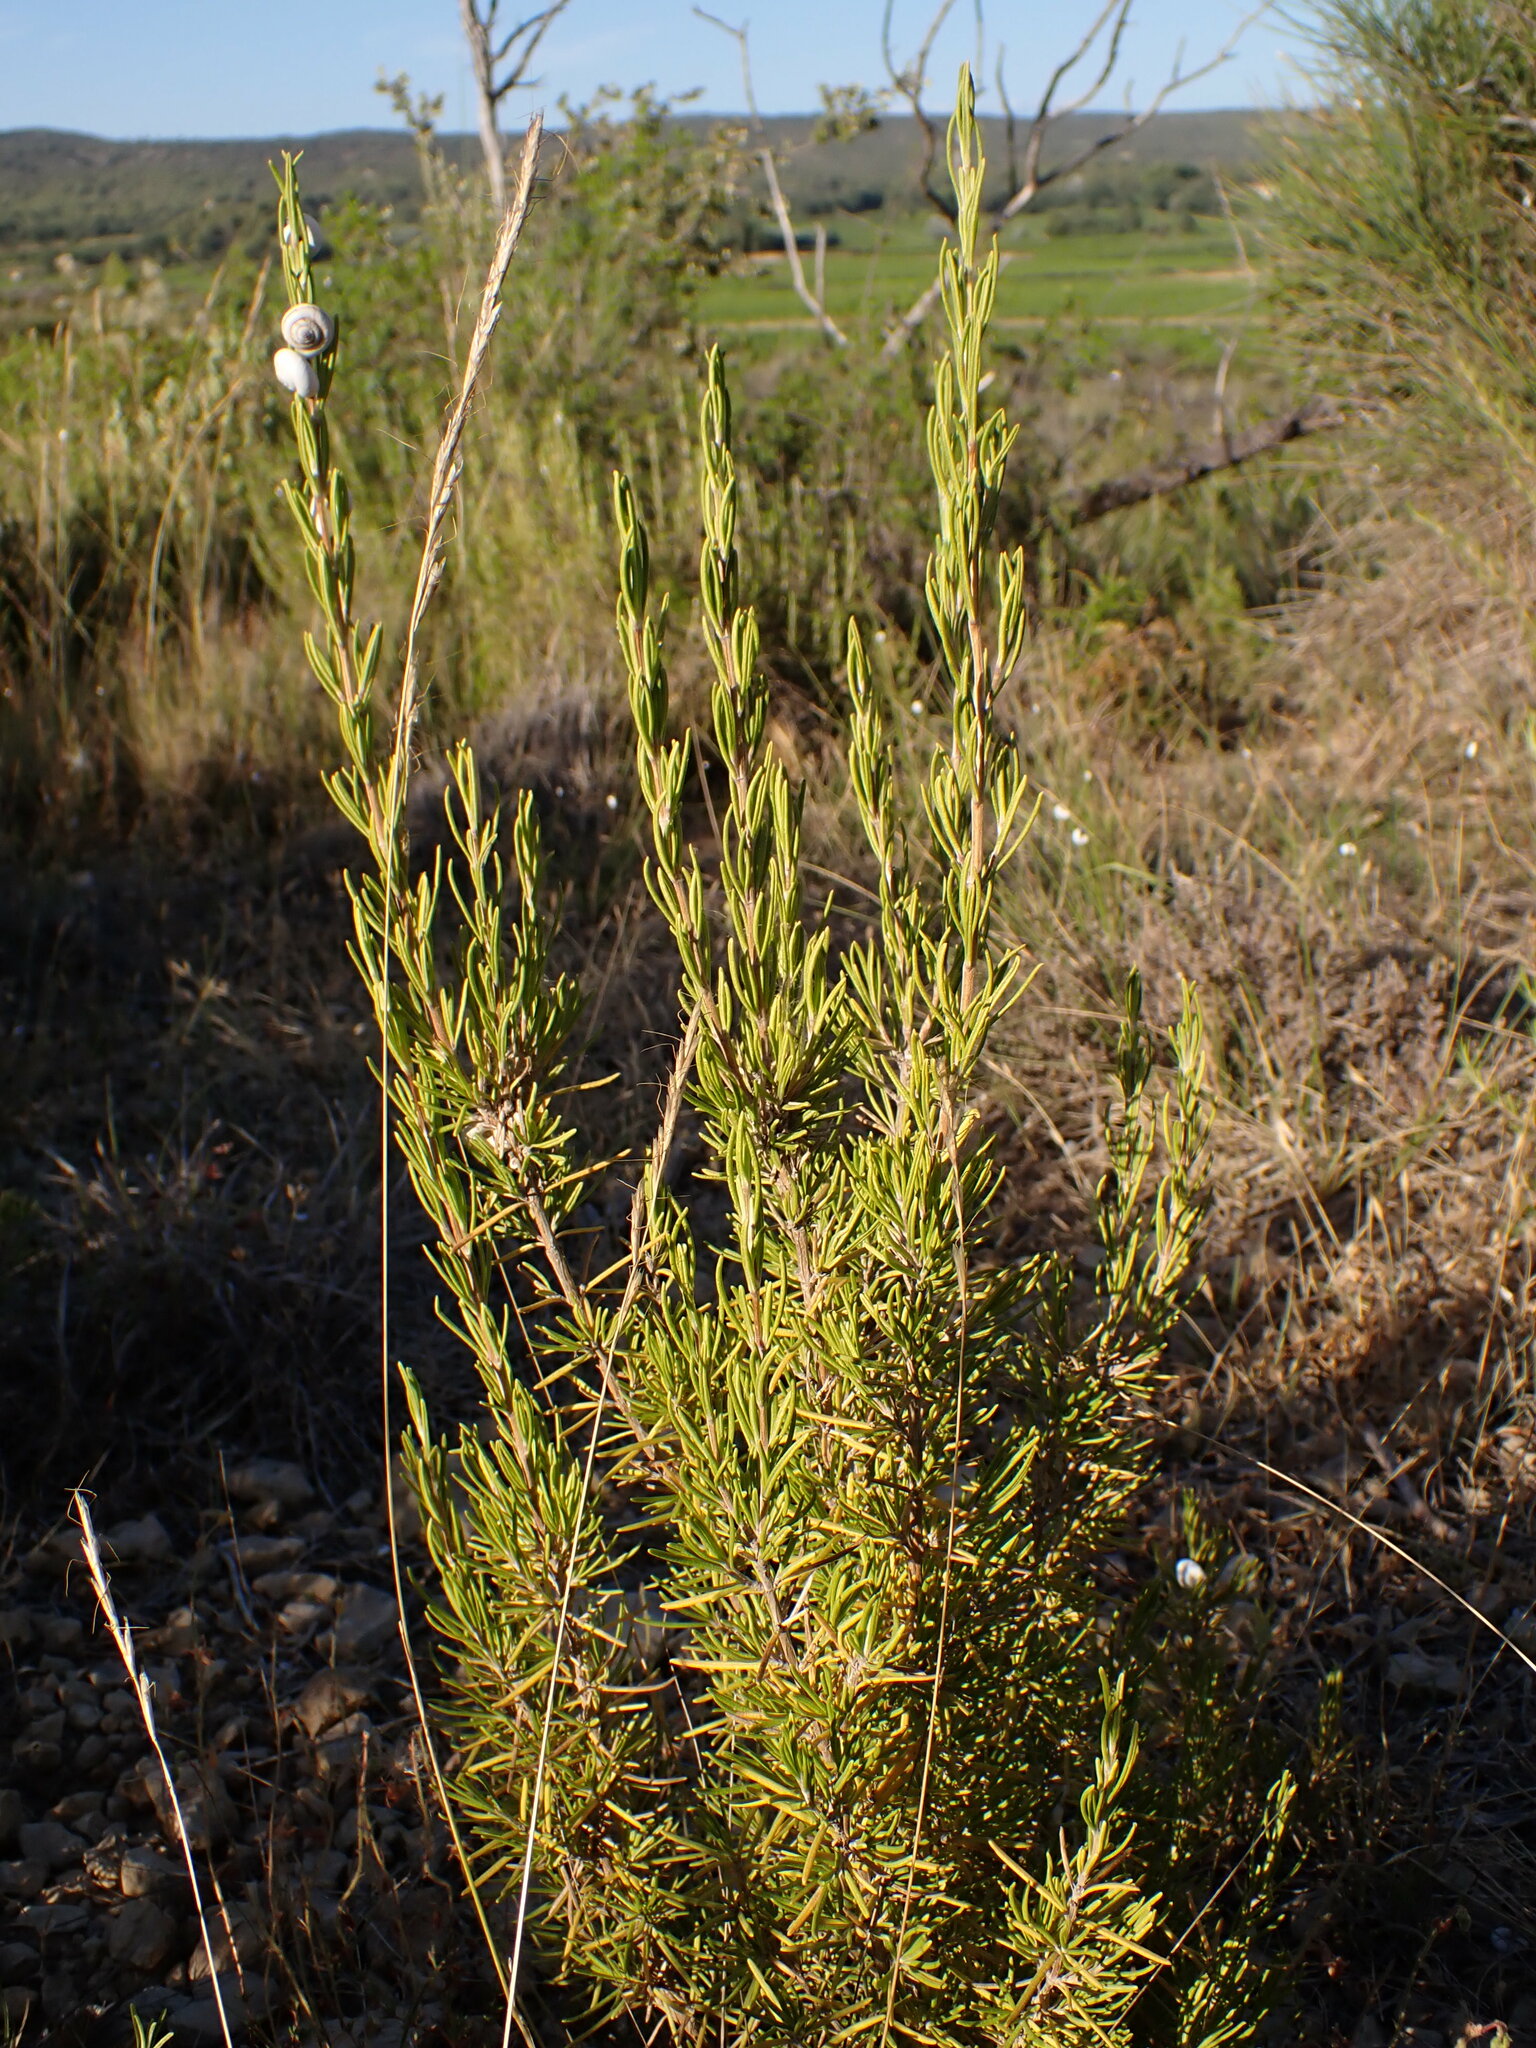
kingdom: Plantae
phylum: Tracheophyta
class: Magnoliopsida
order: Lamiales
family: Lamiaceae
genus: Salvia
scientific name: Salvia rosmarinus
